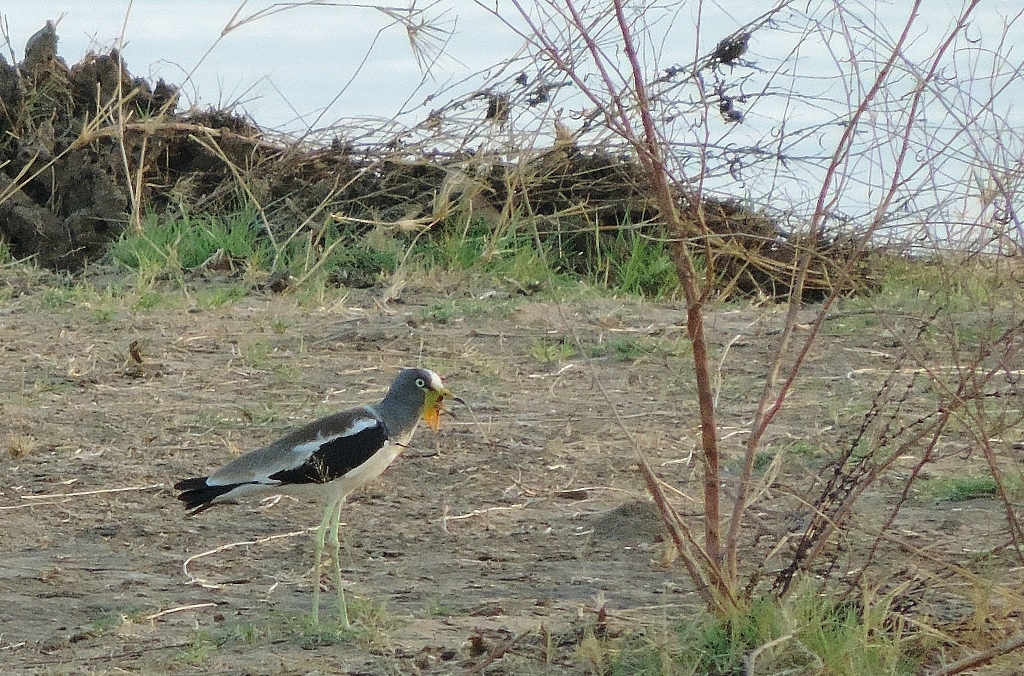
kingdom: Animalia
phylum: Chordata
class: Aves
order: Charadriiformes
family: Charadriidae
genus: Vanellus
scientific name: Vanellus albiceps
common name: White-crowned lapwing
